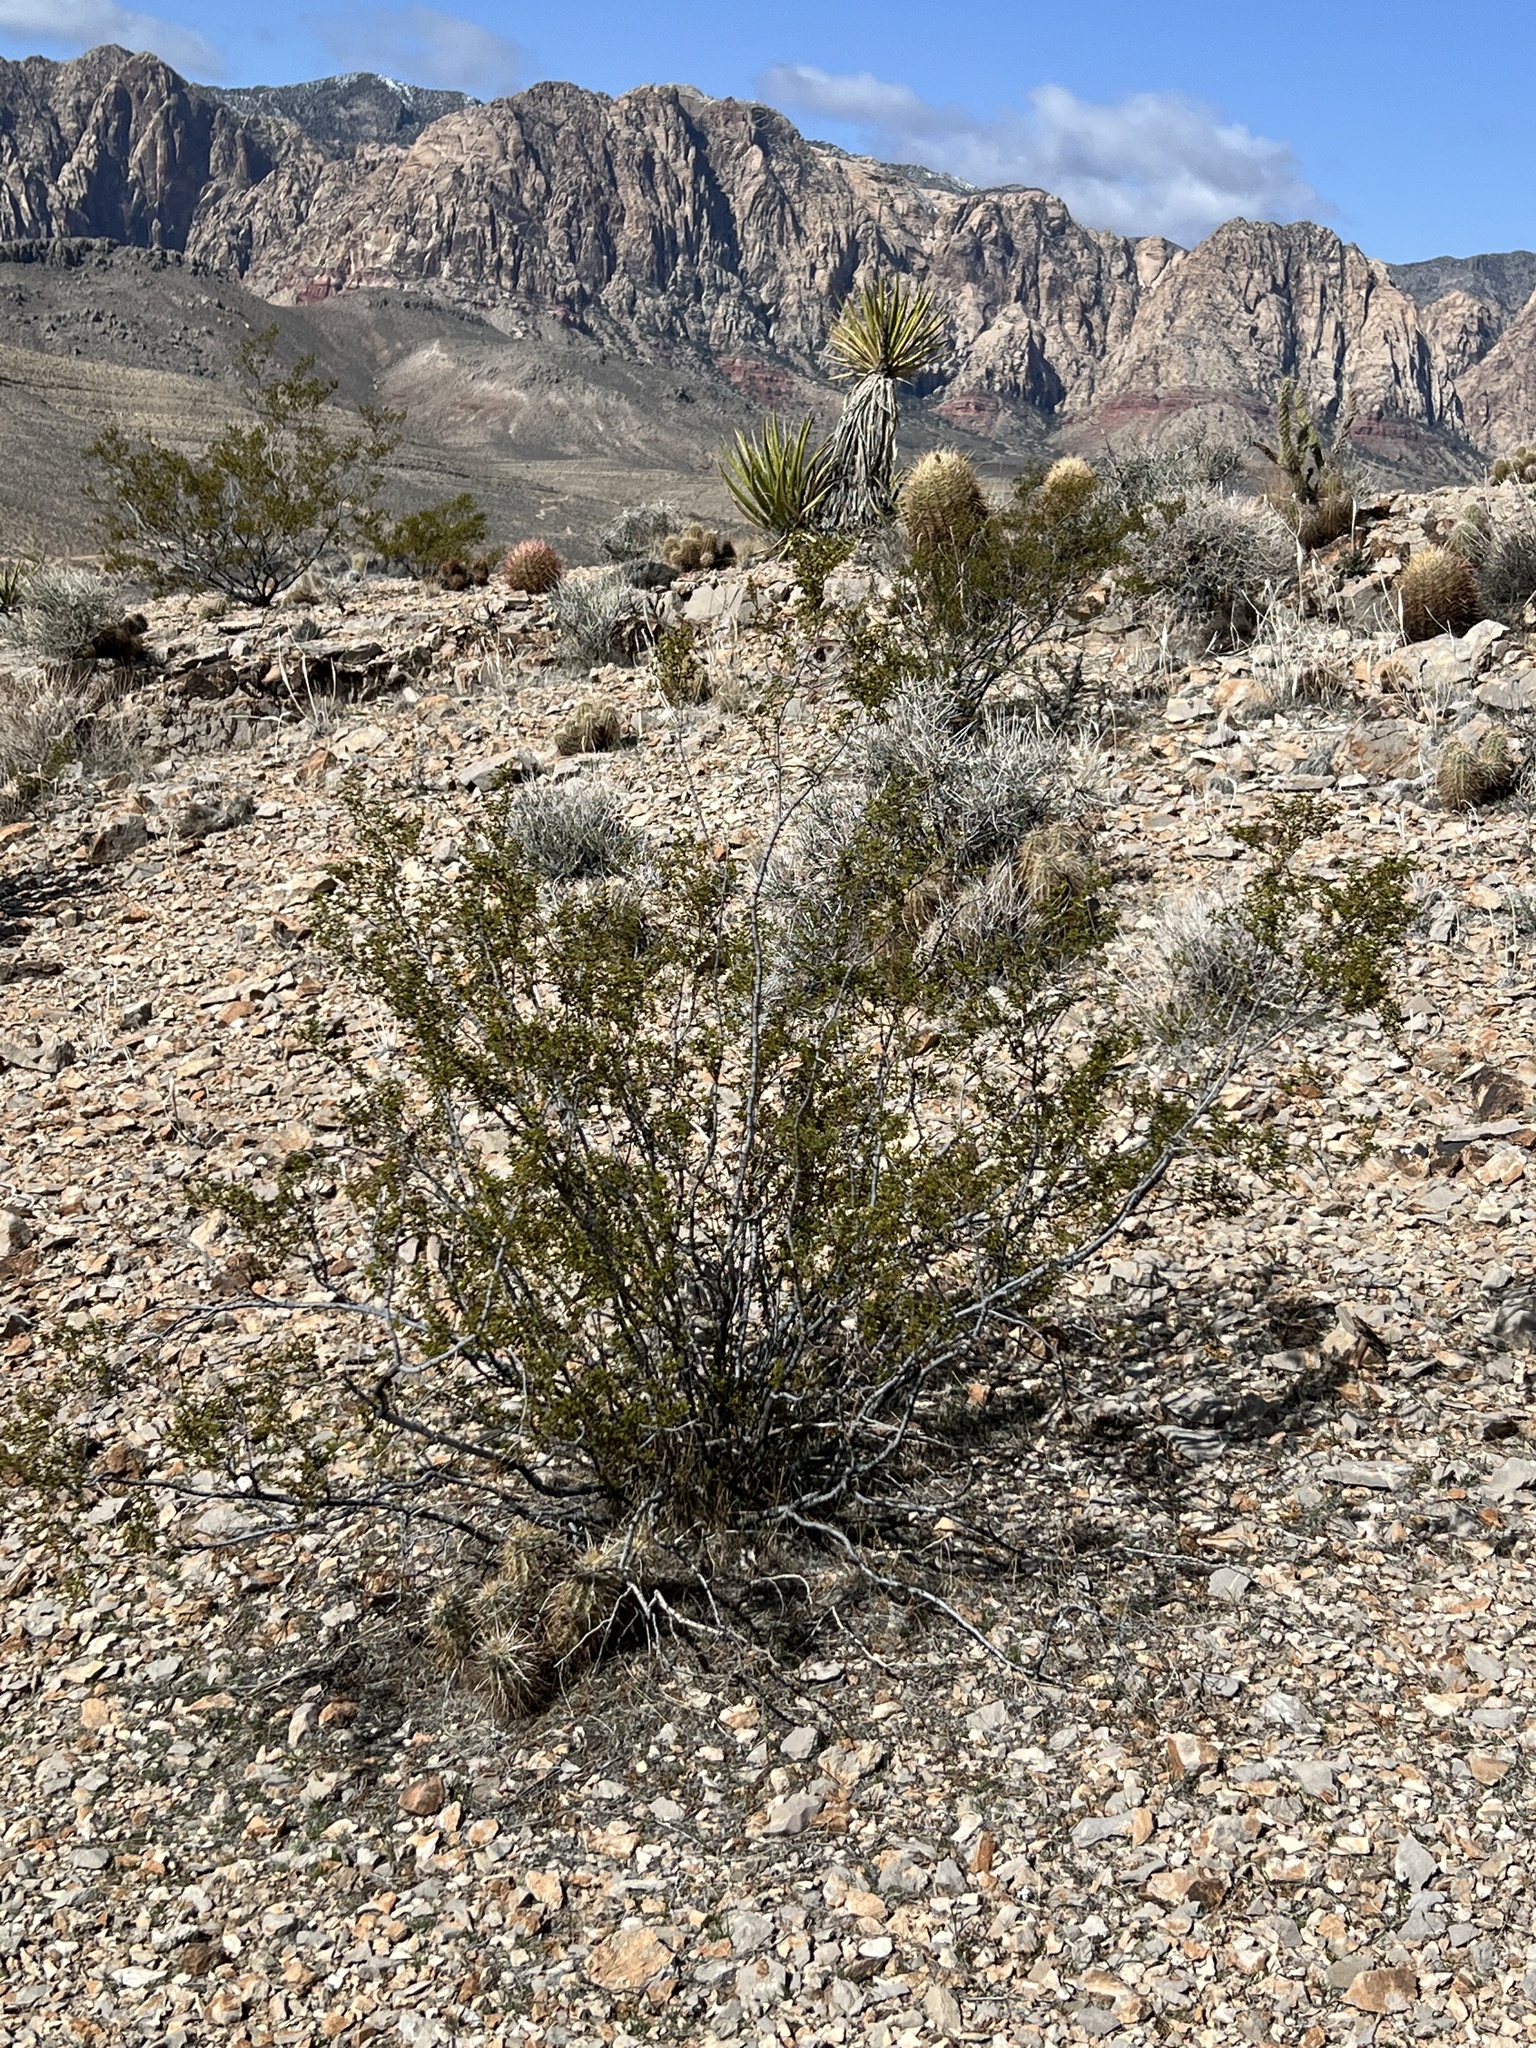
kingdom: Plantae
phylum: Tracheophyta
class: Magnoliopsida
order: Zygophyllales
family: Zygophyllaceae
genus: Larrea
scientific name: Larrea tridentata
